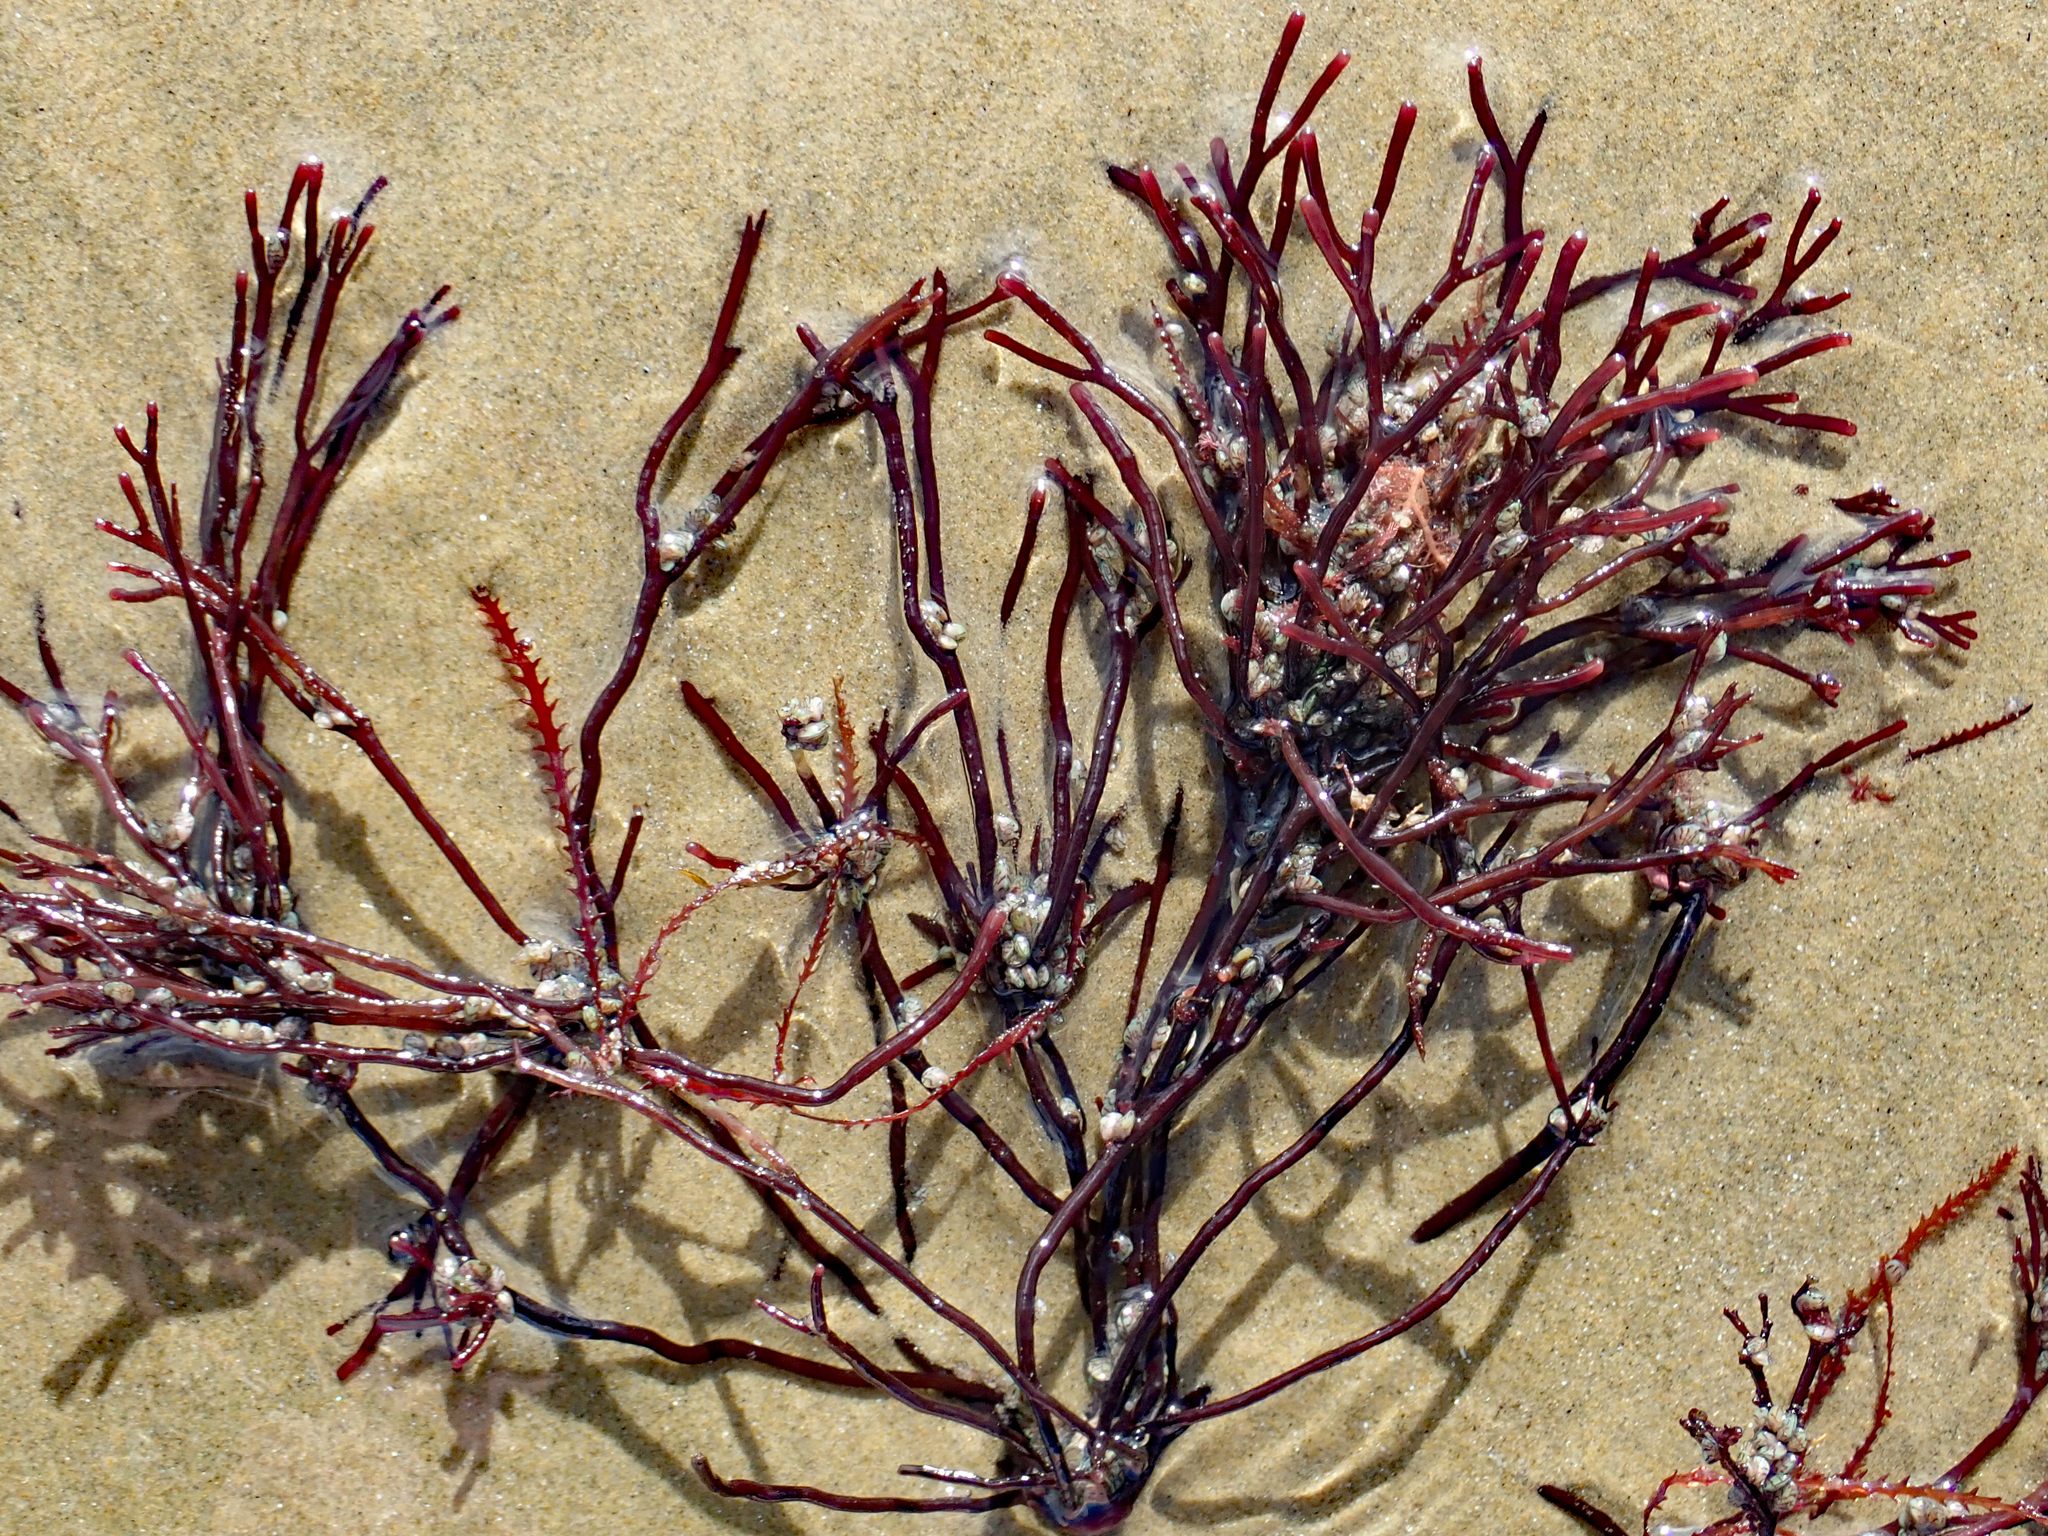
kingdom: Plantae
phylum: Rhodophyta
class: Florideophyceae
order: Gracilariales
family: Gracilariaceae
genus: Melanthalia
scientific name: Melanthalia abscissa
